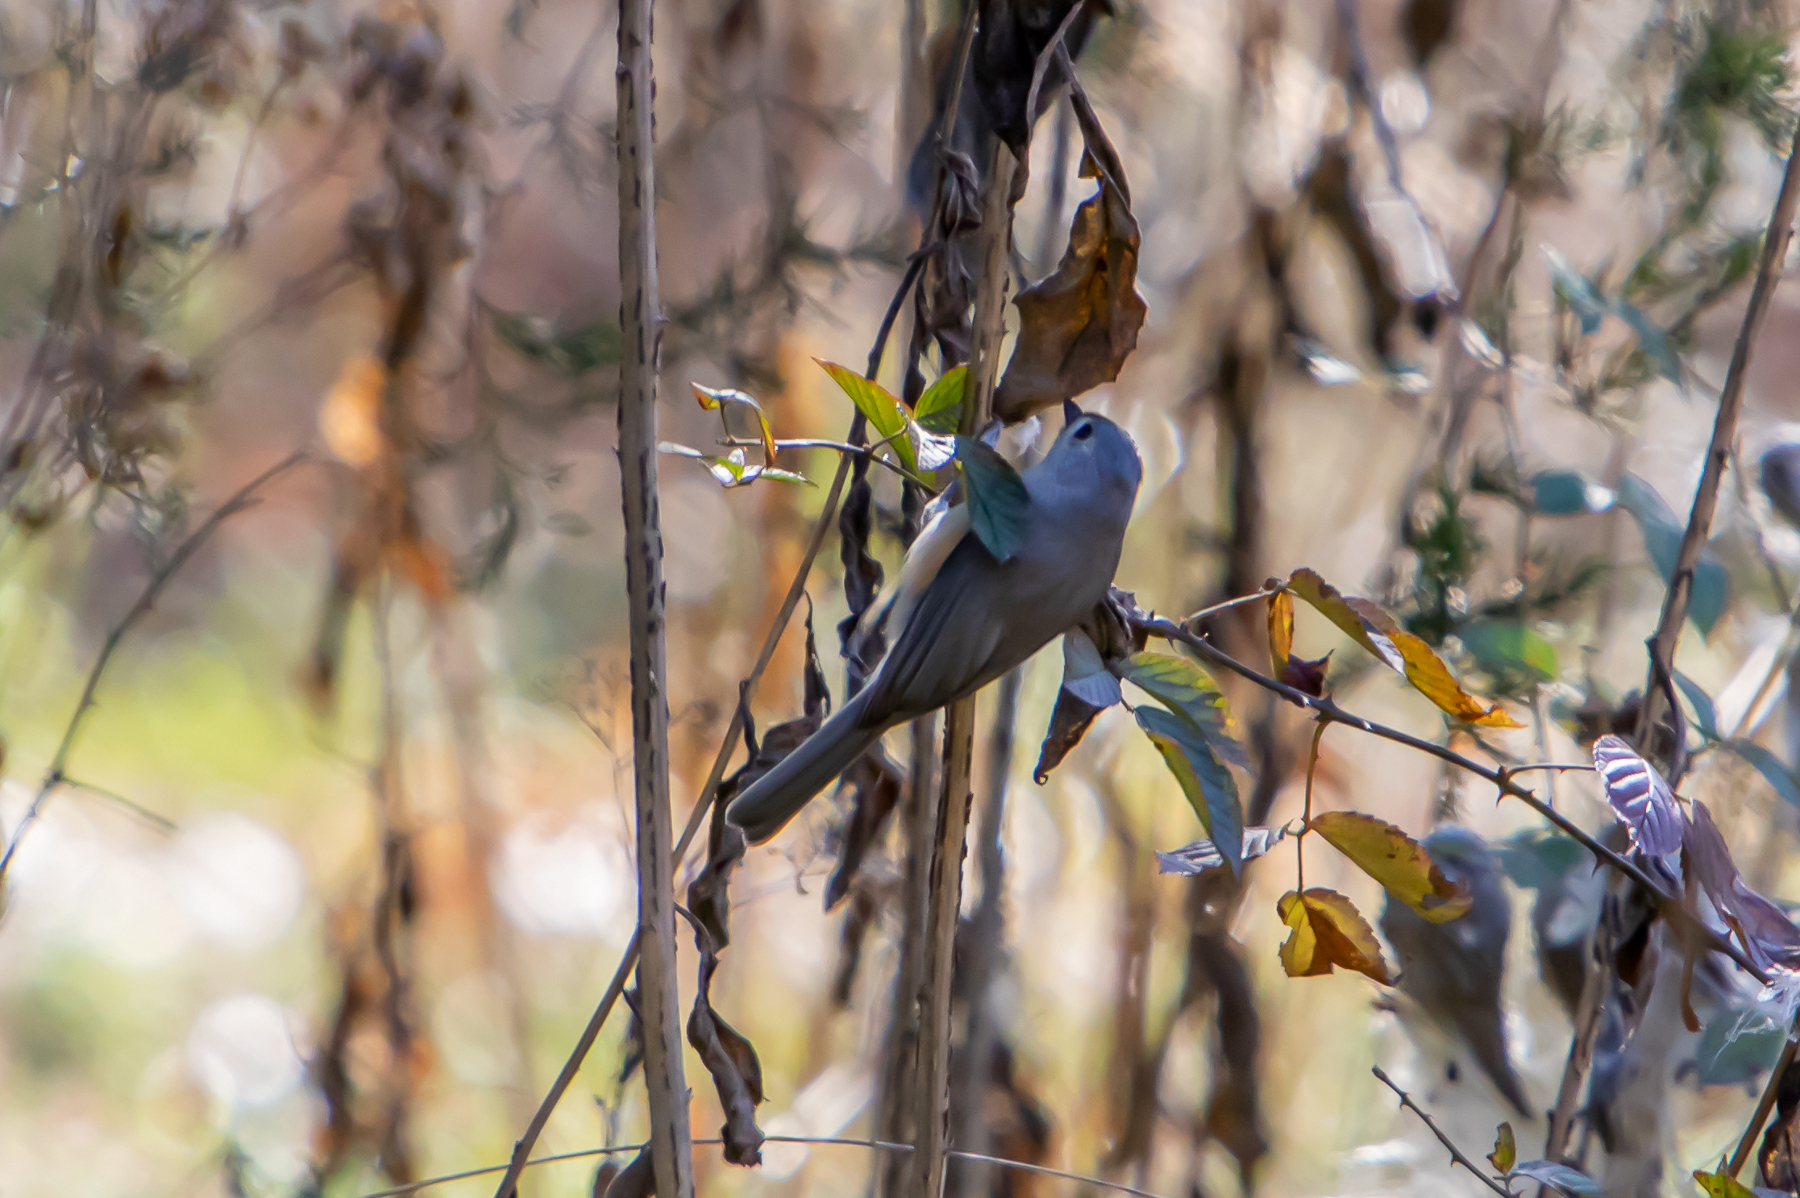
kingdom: Animalia
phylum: Chordata
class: Aves
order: Passeriformes
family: Paridae
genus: Baeolophus
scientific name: Baeolophus bicolor
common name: Tufted titmouse
